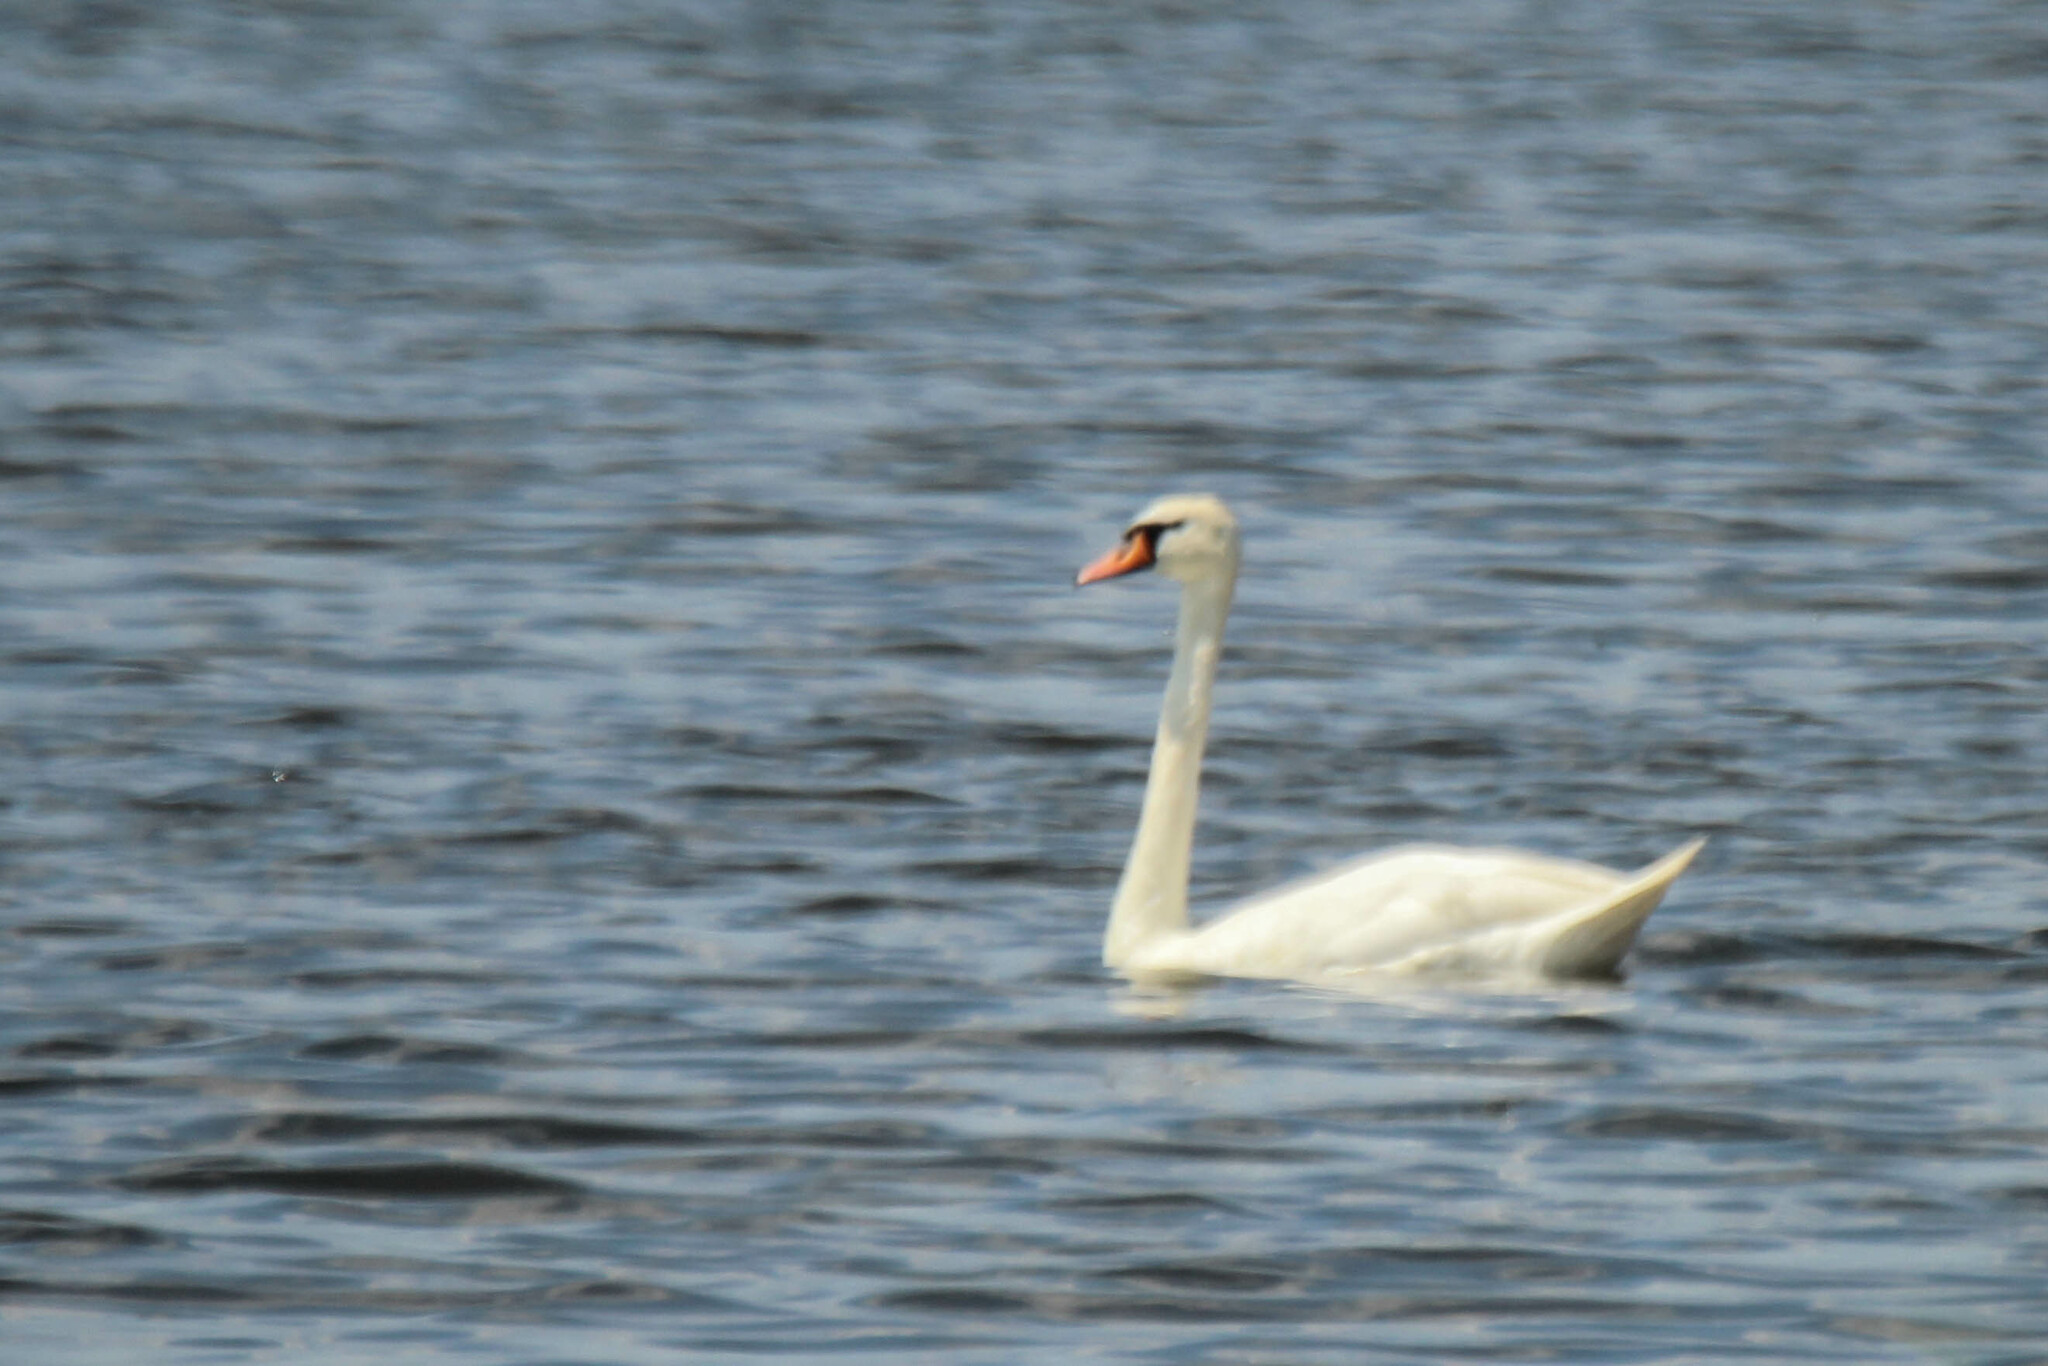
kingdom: Animalia
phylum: Chordata
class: Aves
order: Anseriformes
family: Anatidae
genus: Cygnus
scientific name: Cygnus olor
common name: Mute swan
